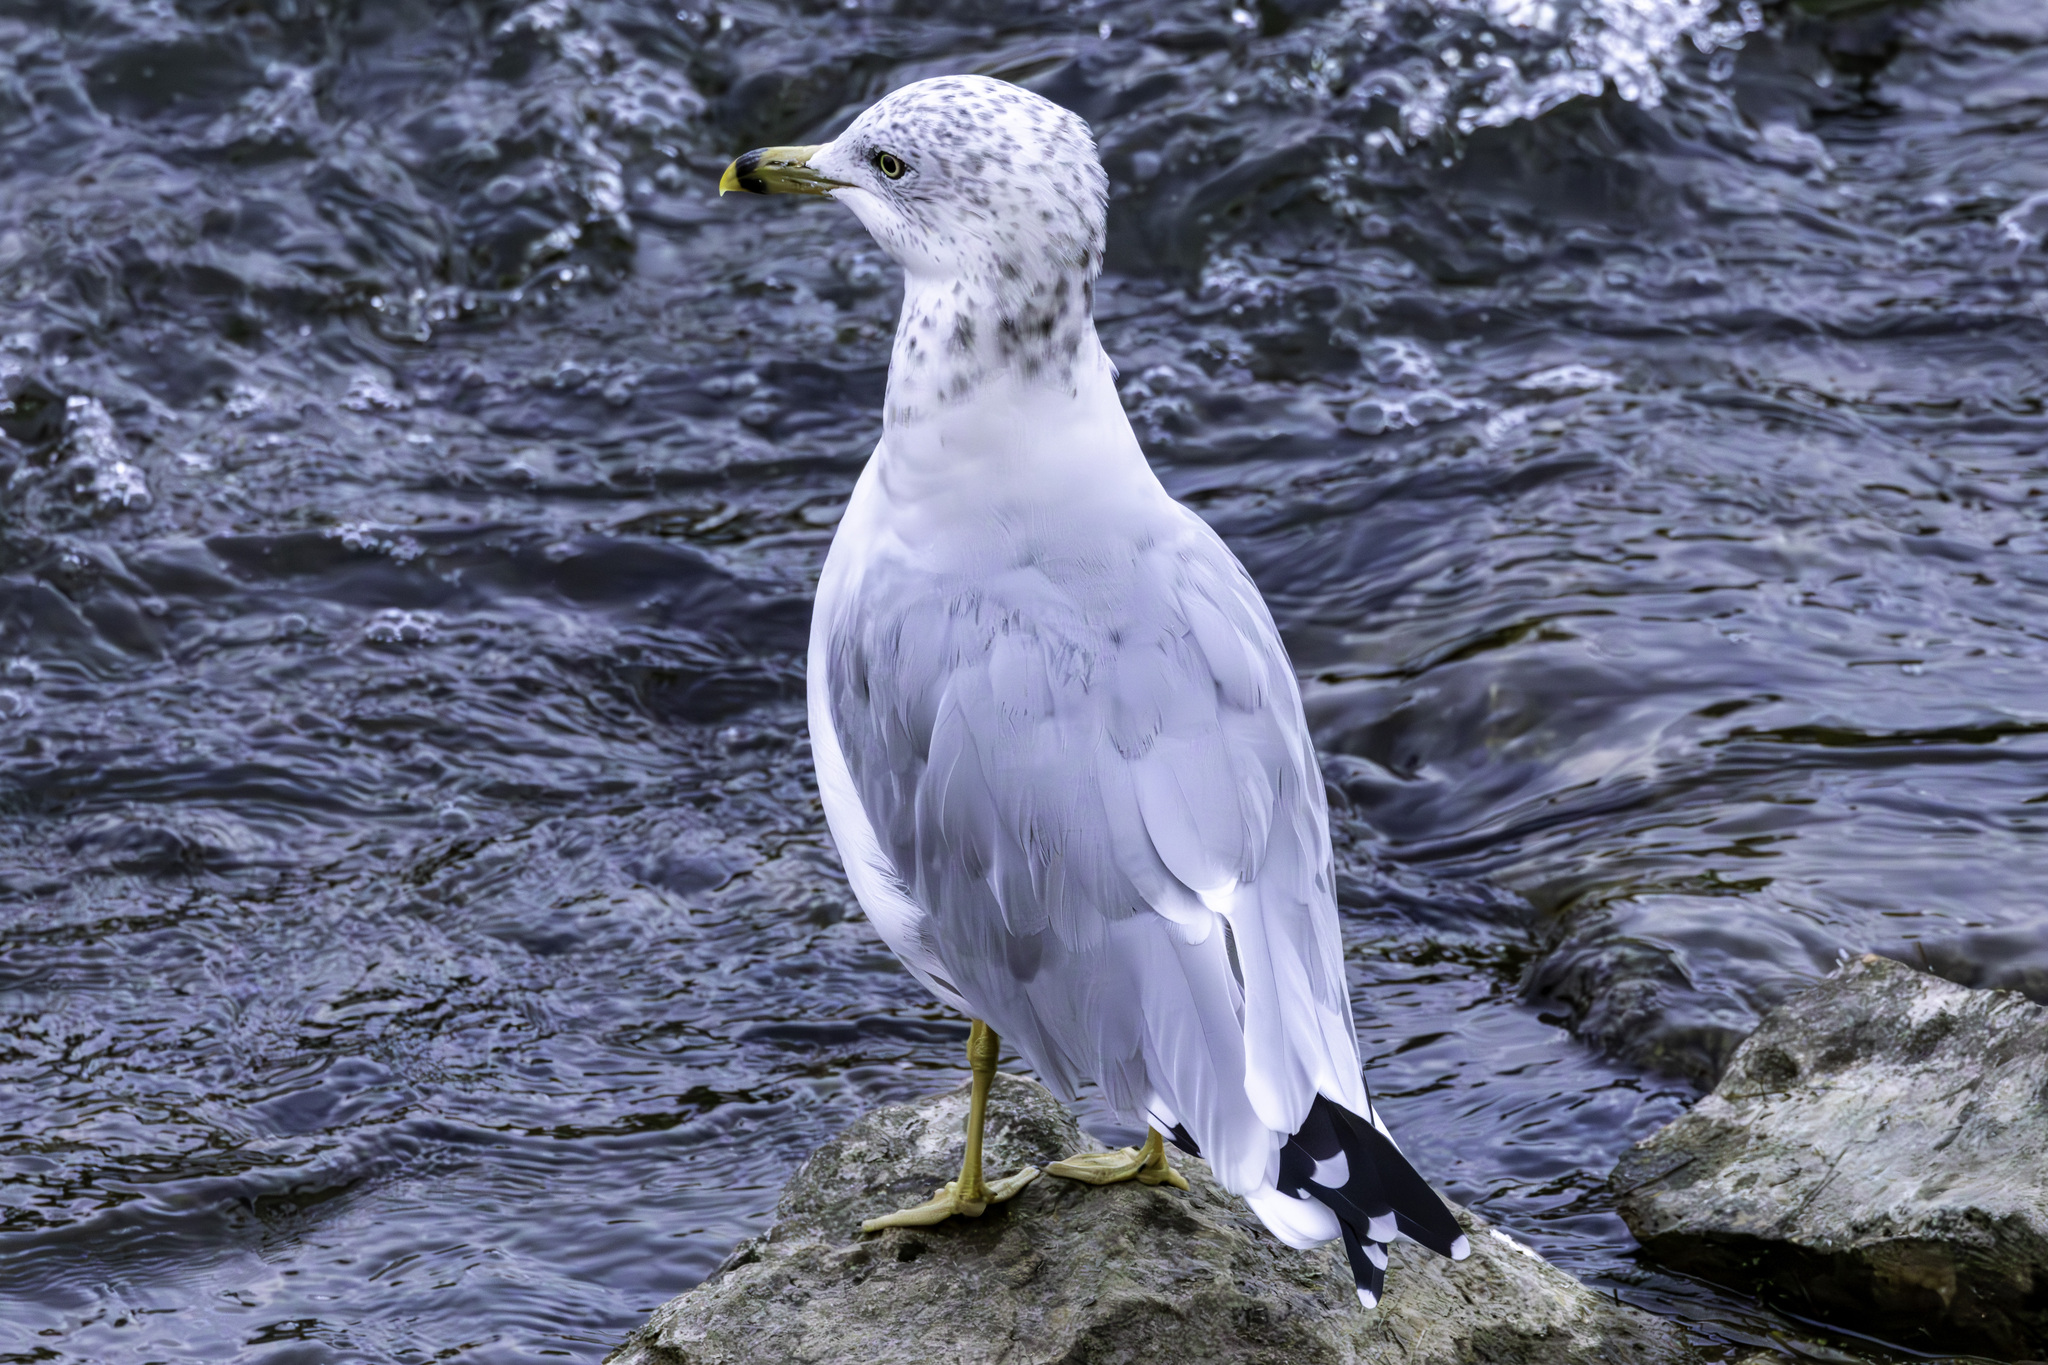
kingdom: Animalia
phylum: Chordata
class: Aves
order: Charadriiformes
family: Laridae
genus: Larus
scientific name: Larus delawarensis
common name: Ring-billed gull
